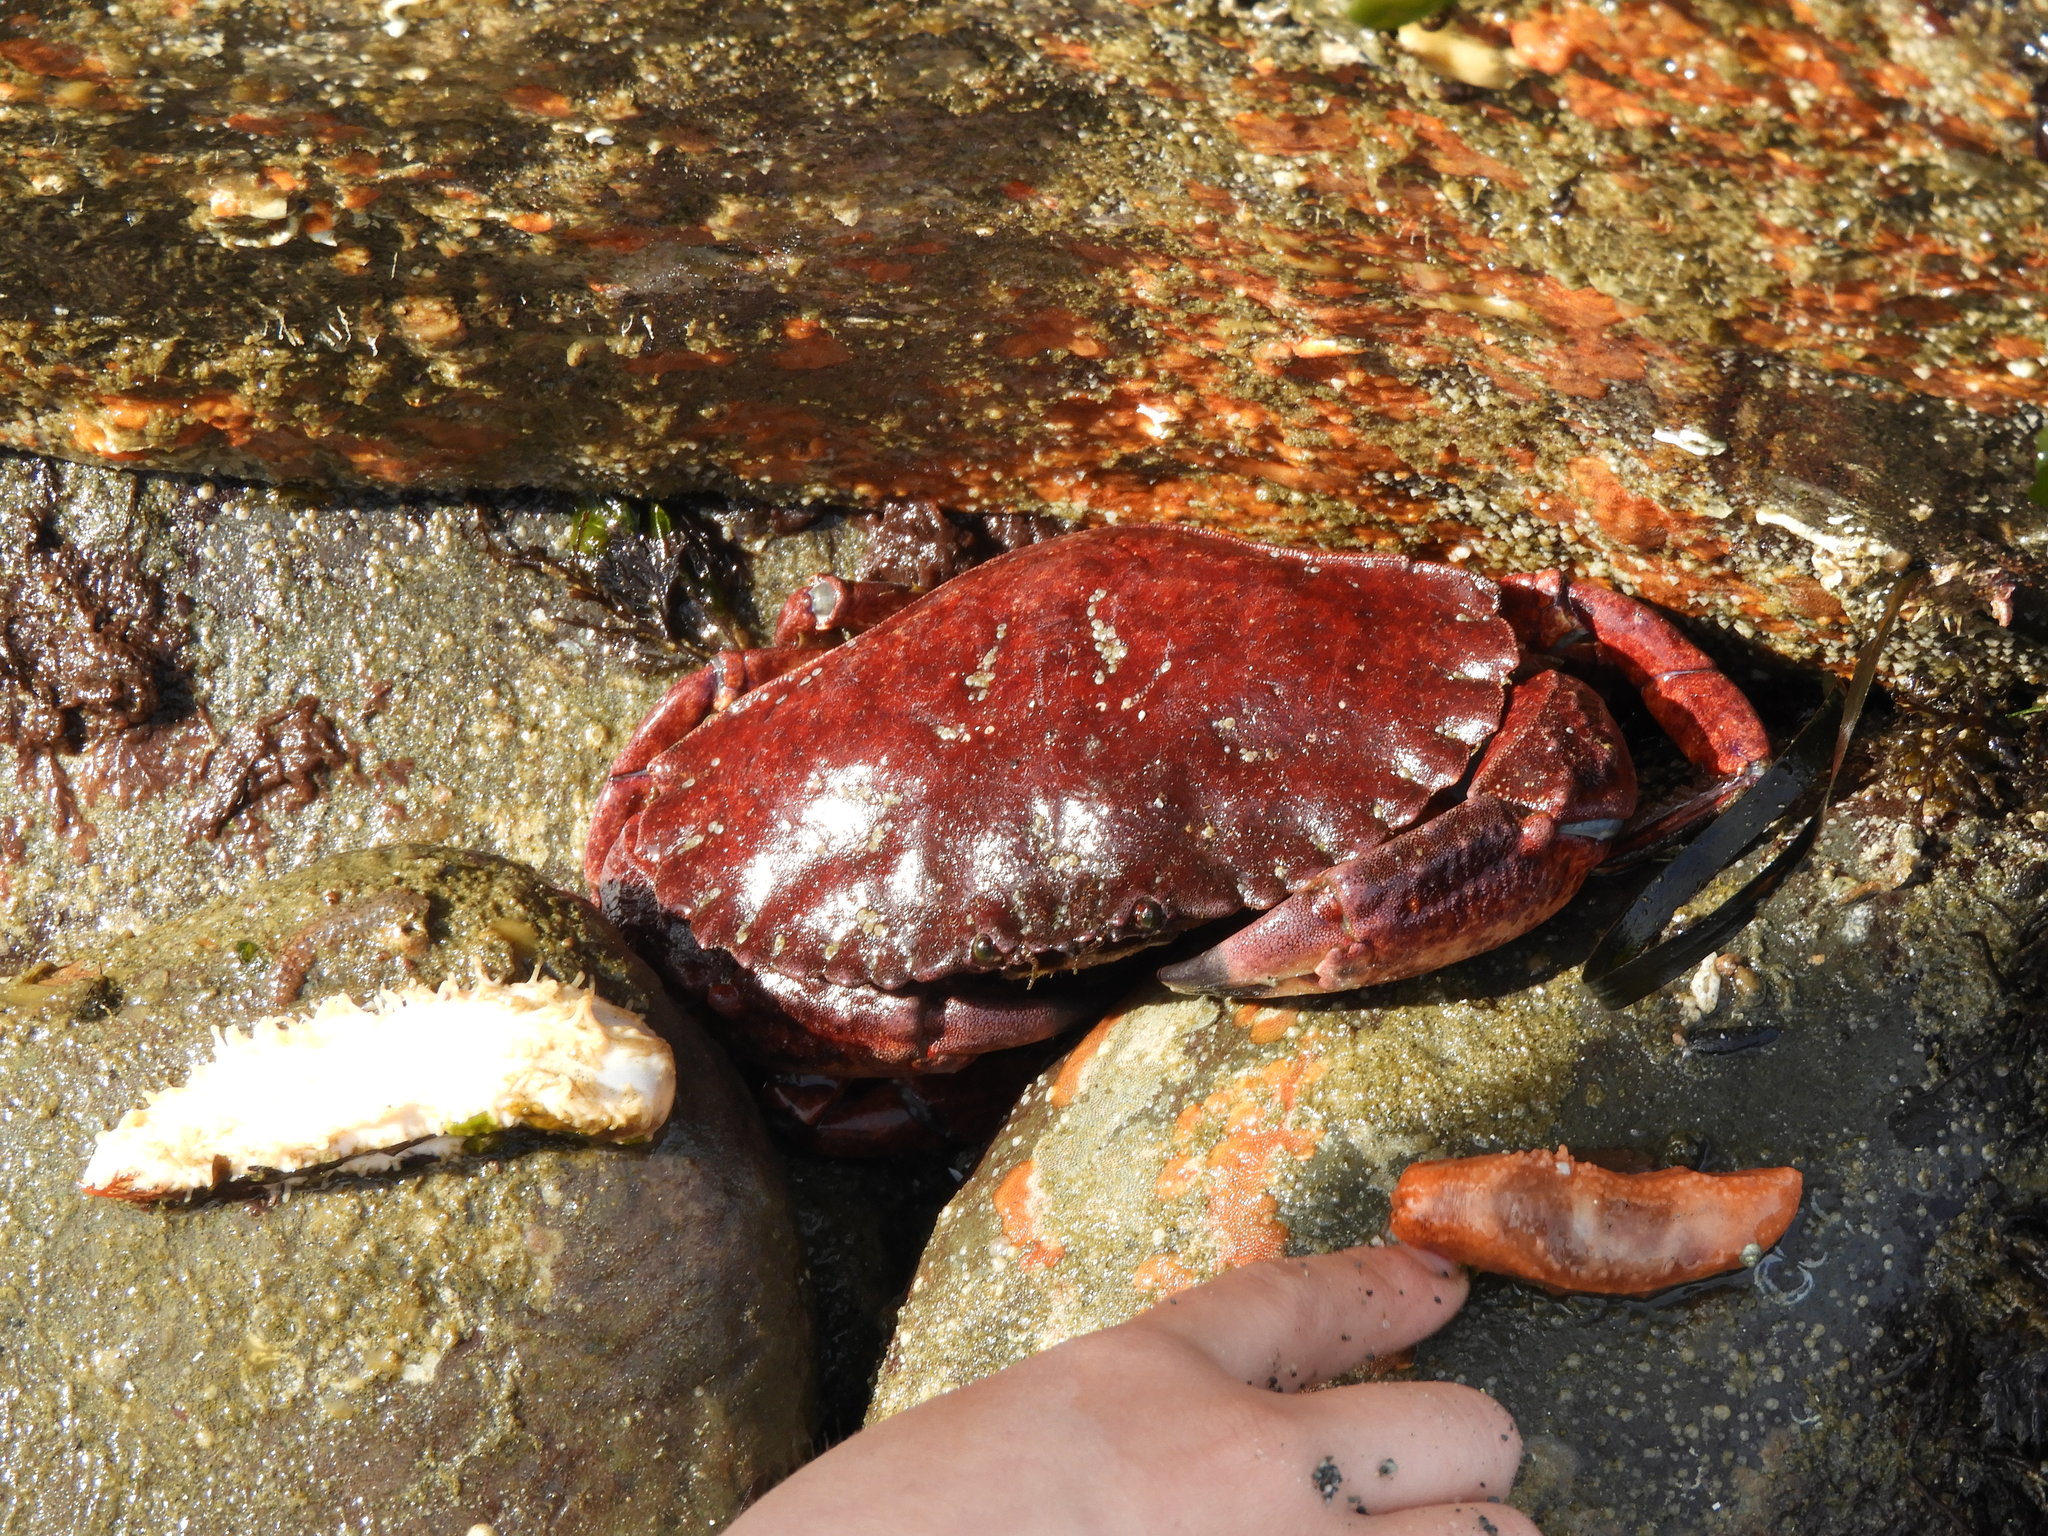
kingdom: Animalia
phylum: Arthropoda
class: Malacostraca
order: Decapoda
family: Cancridae
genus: Cancer
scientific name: Cancer productus
